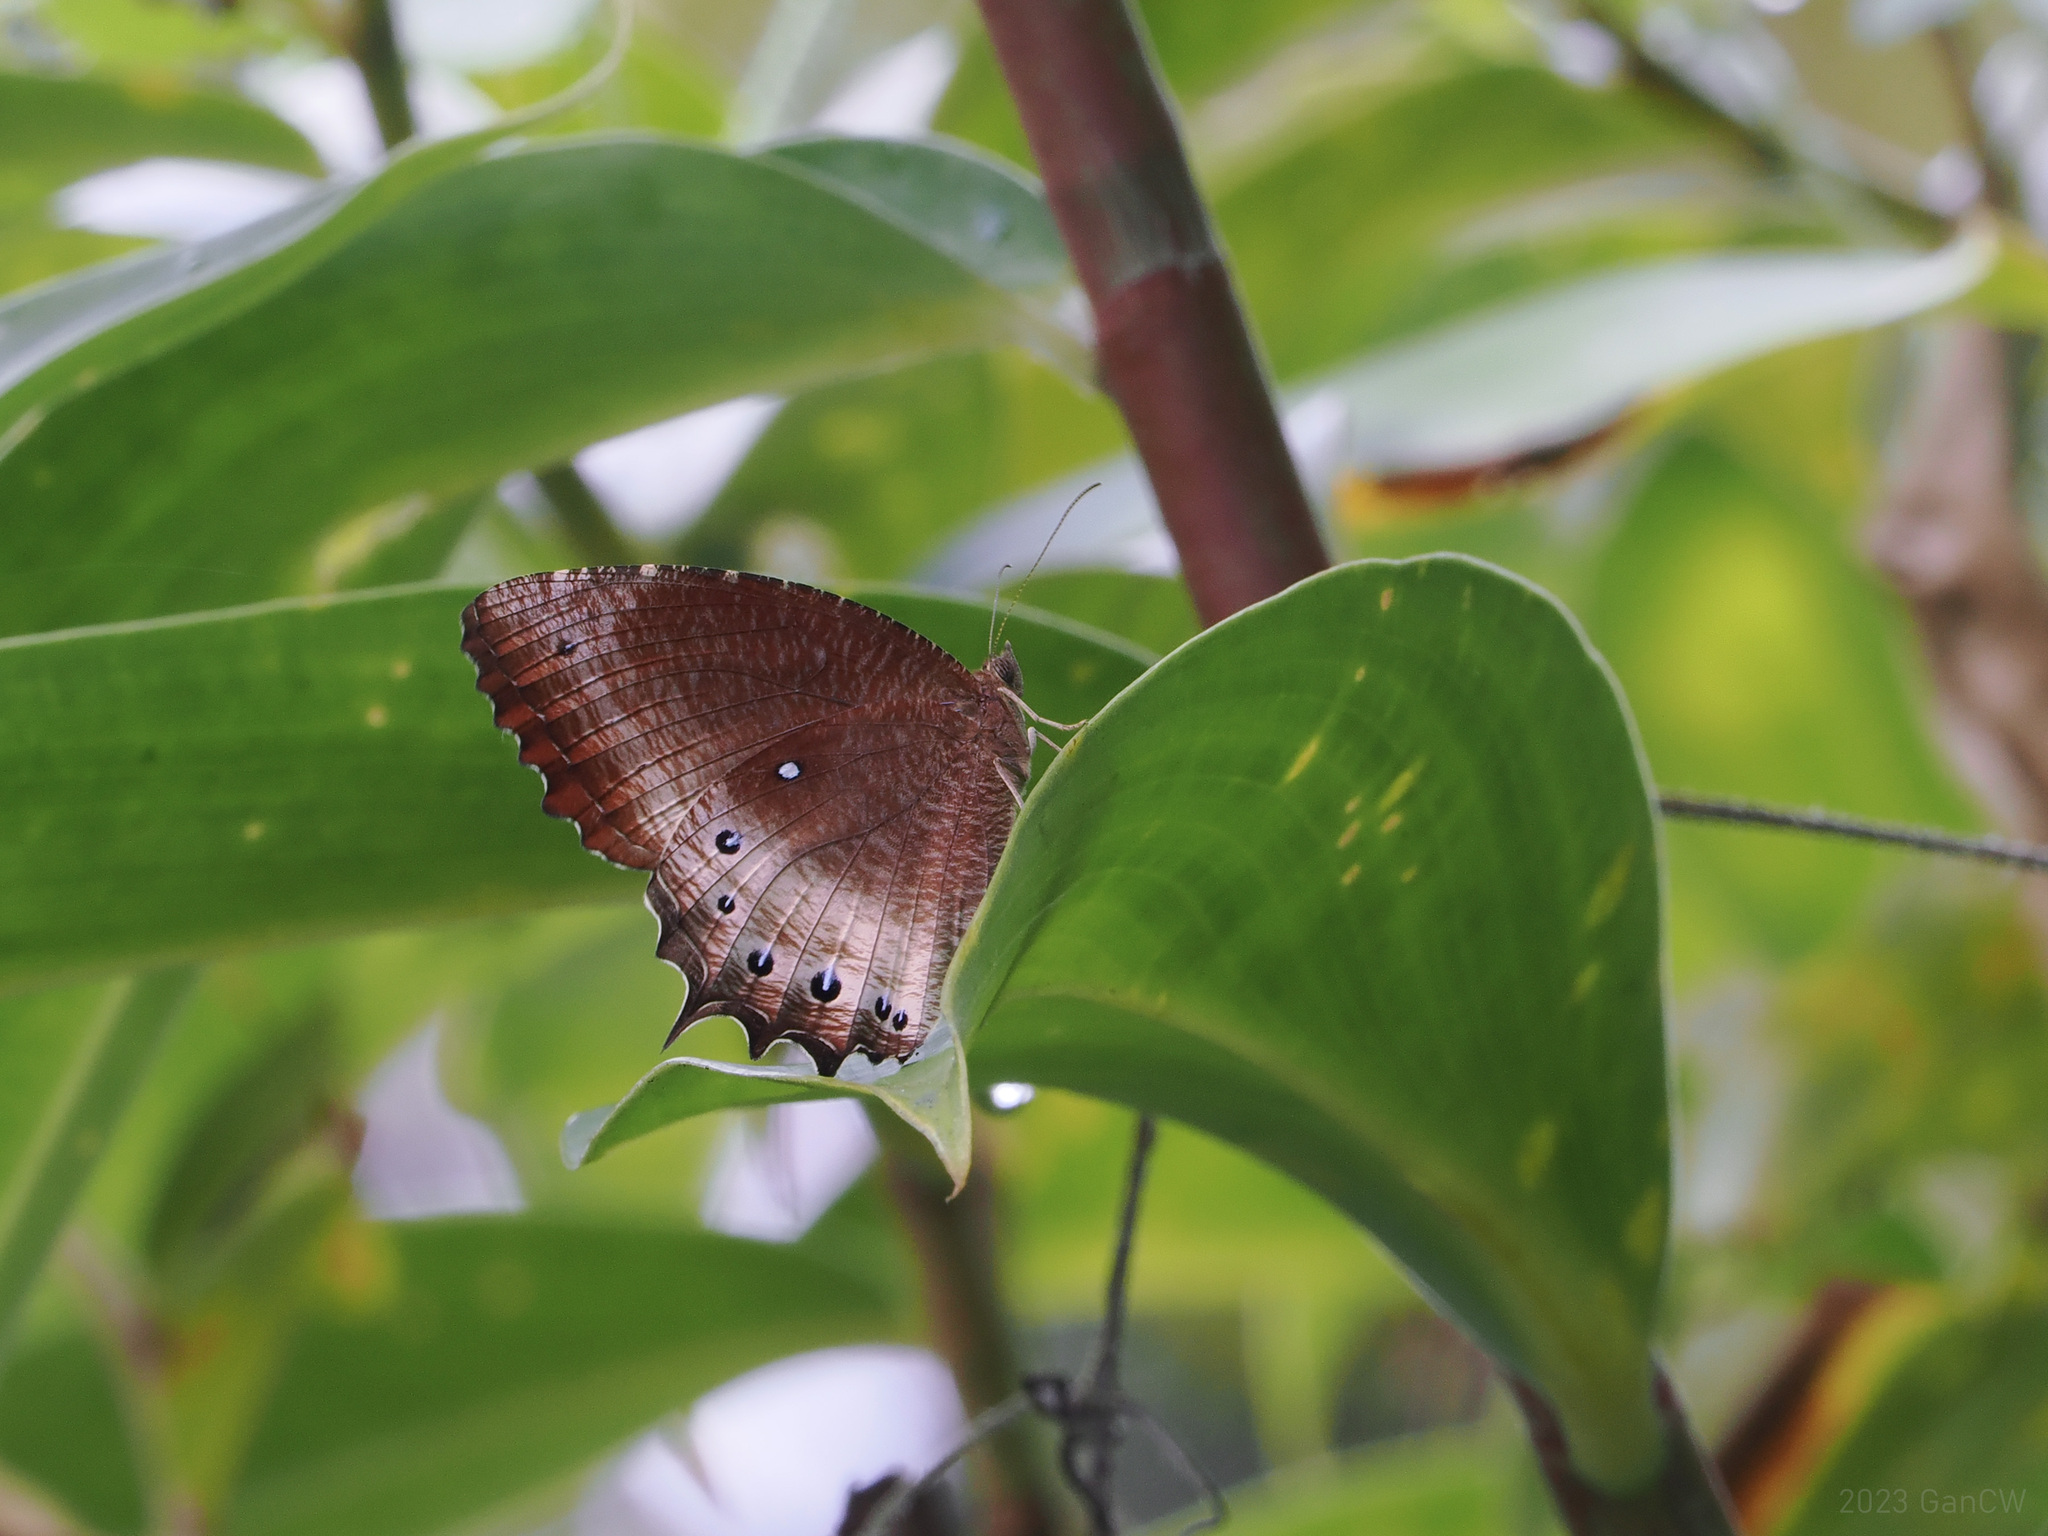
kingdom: Animalia
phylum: Arthropoda
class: Insecta
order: Lepidoptera
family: Nymphalidae
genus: Elymnias
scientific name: Elymnias panthera
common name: Tawny palmfly
